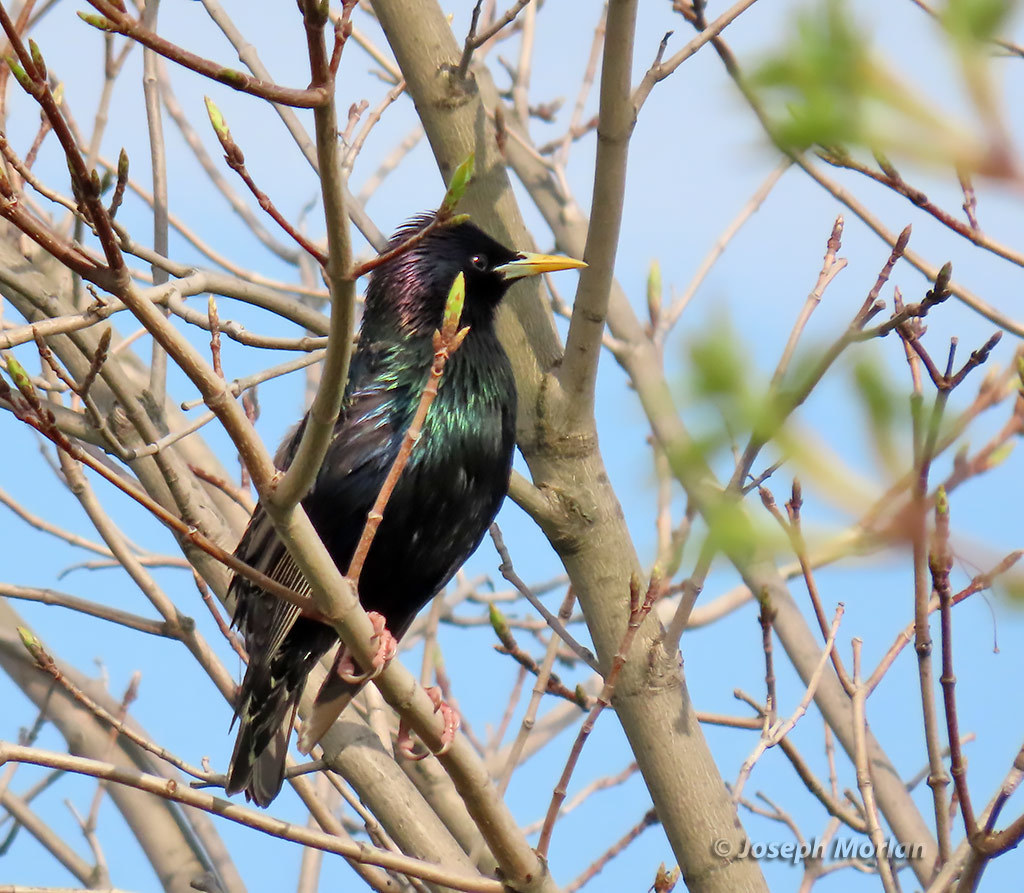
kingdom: Animalia
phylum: Chordata
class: Aves
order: Passeriformes
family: Sturnidae
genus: Sturnus
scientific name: Sturnus vulgaris
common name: Common starling
